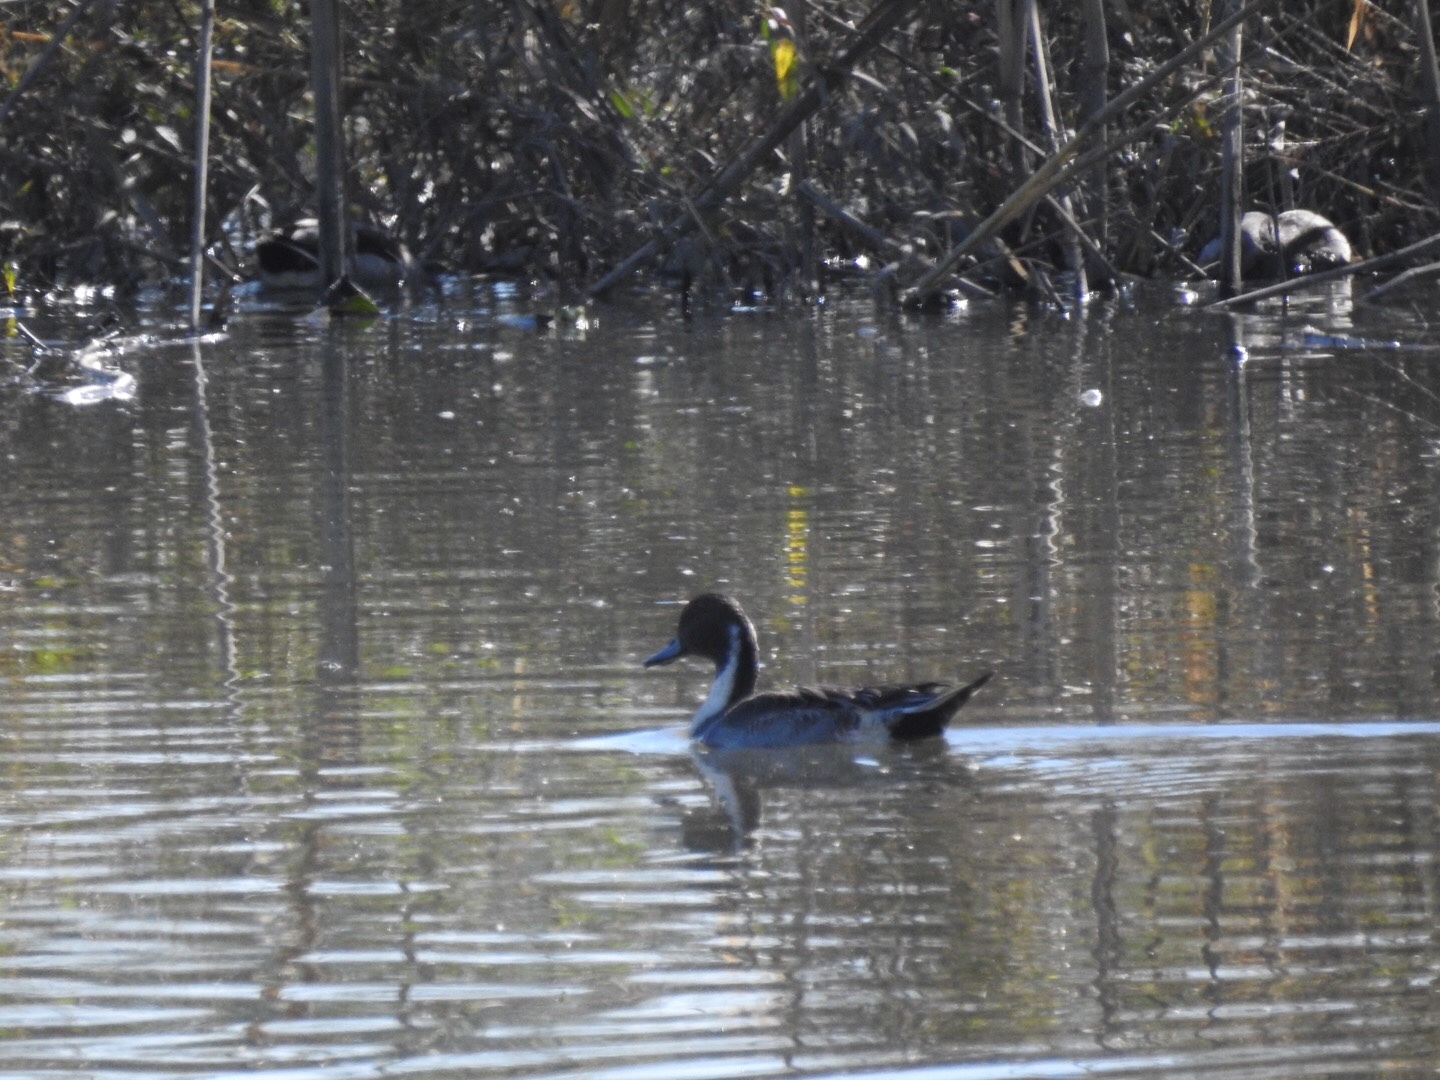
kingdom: Animalia
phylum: Chordata
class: Aves
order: Anseriformes
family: Anatidae
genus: Anas
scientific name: Anas acuta
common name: Northern pintail
